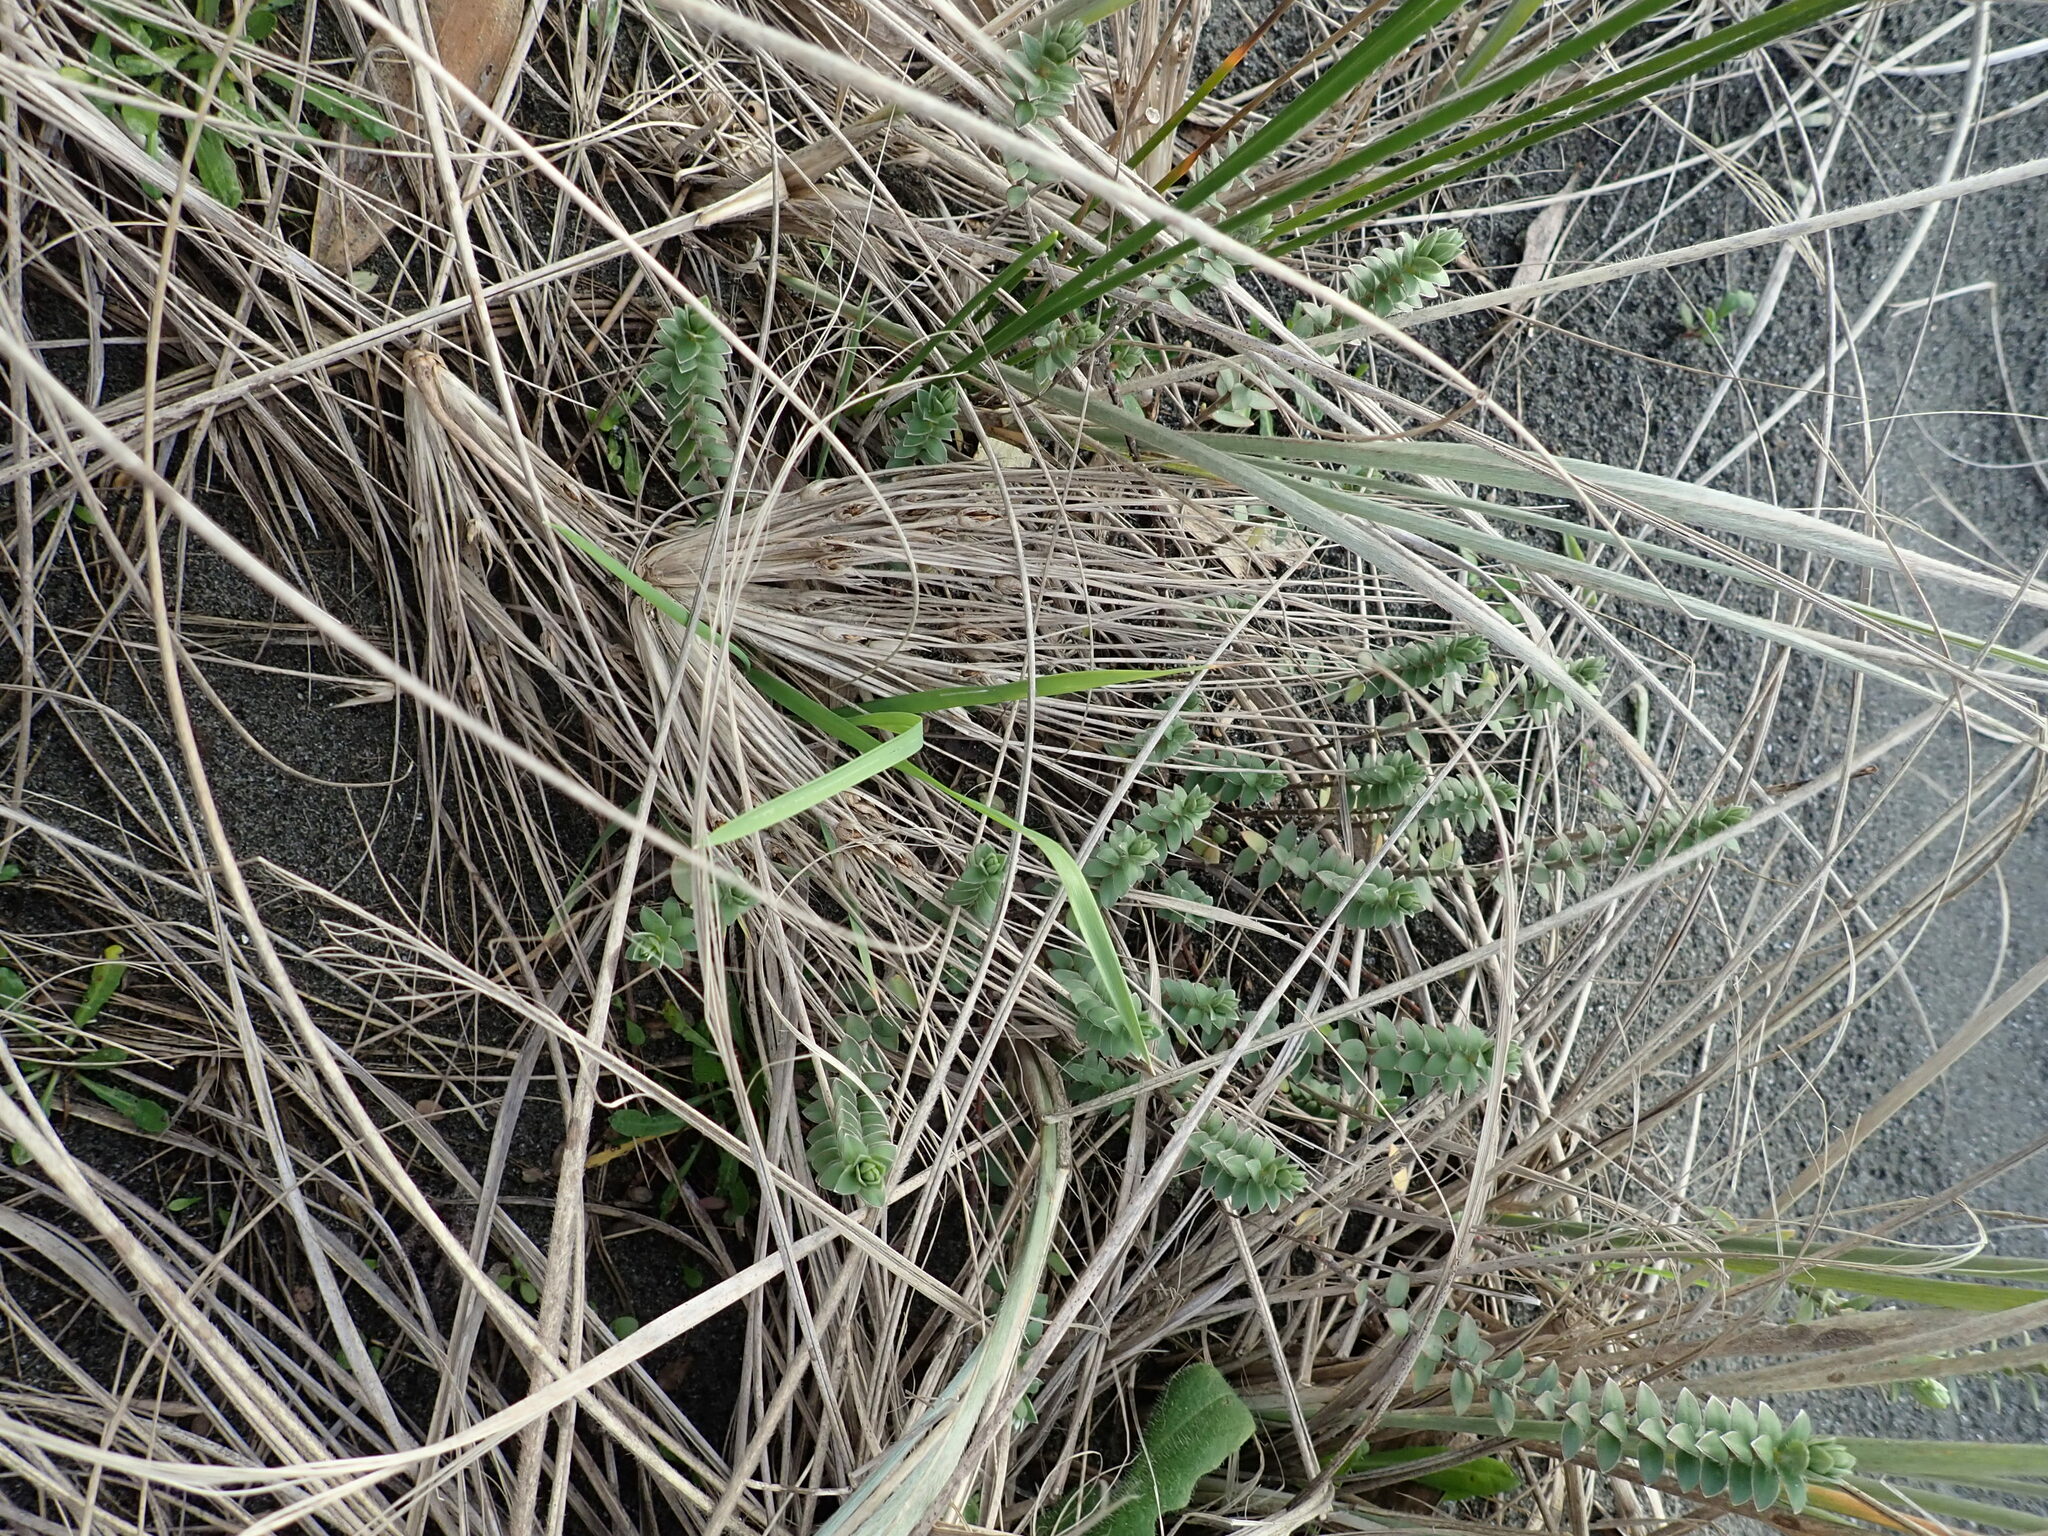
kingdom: Plantae
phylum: Tracheophyta
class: Magnoliopsida
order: Malvales
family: Thymelaeaceae
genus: Pimelea
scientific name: Pimelea villosa
